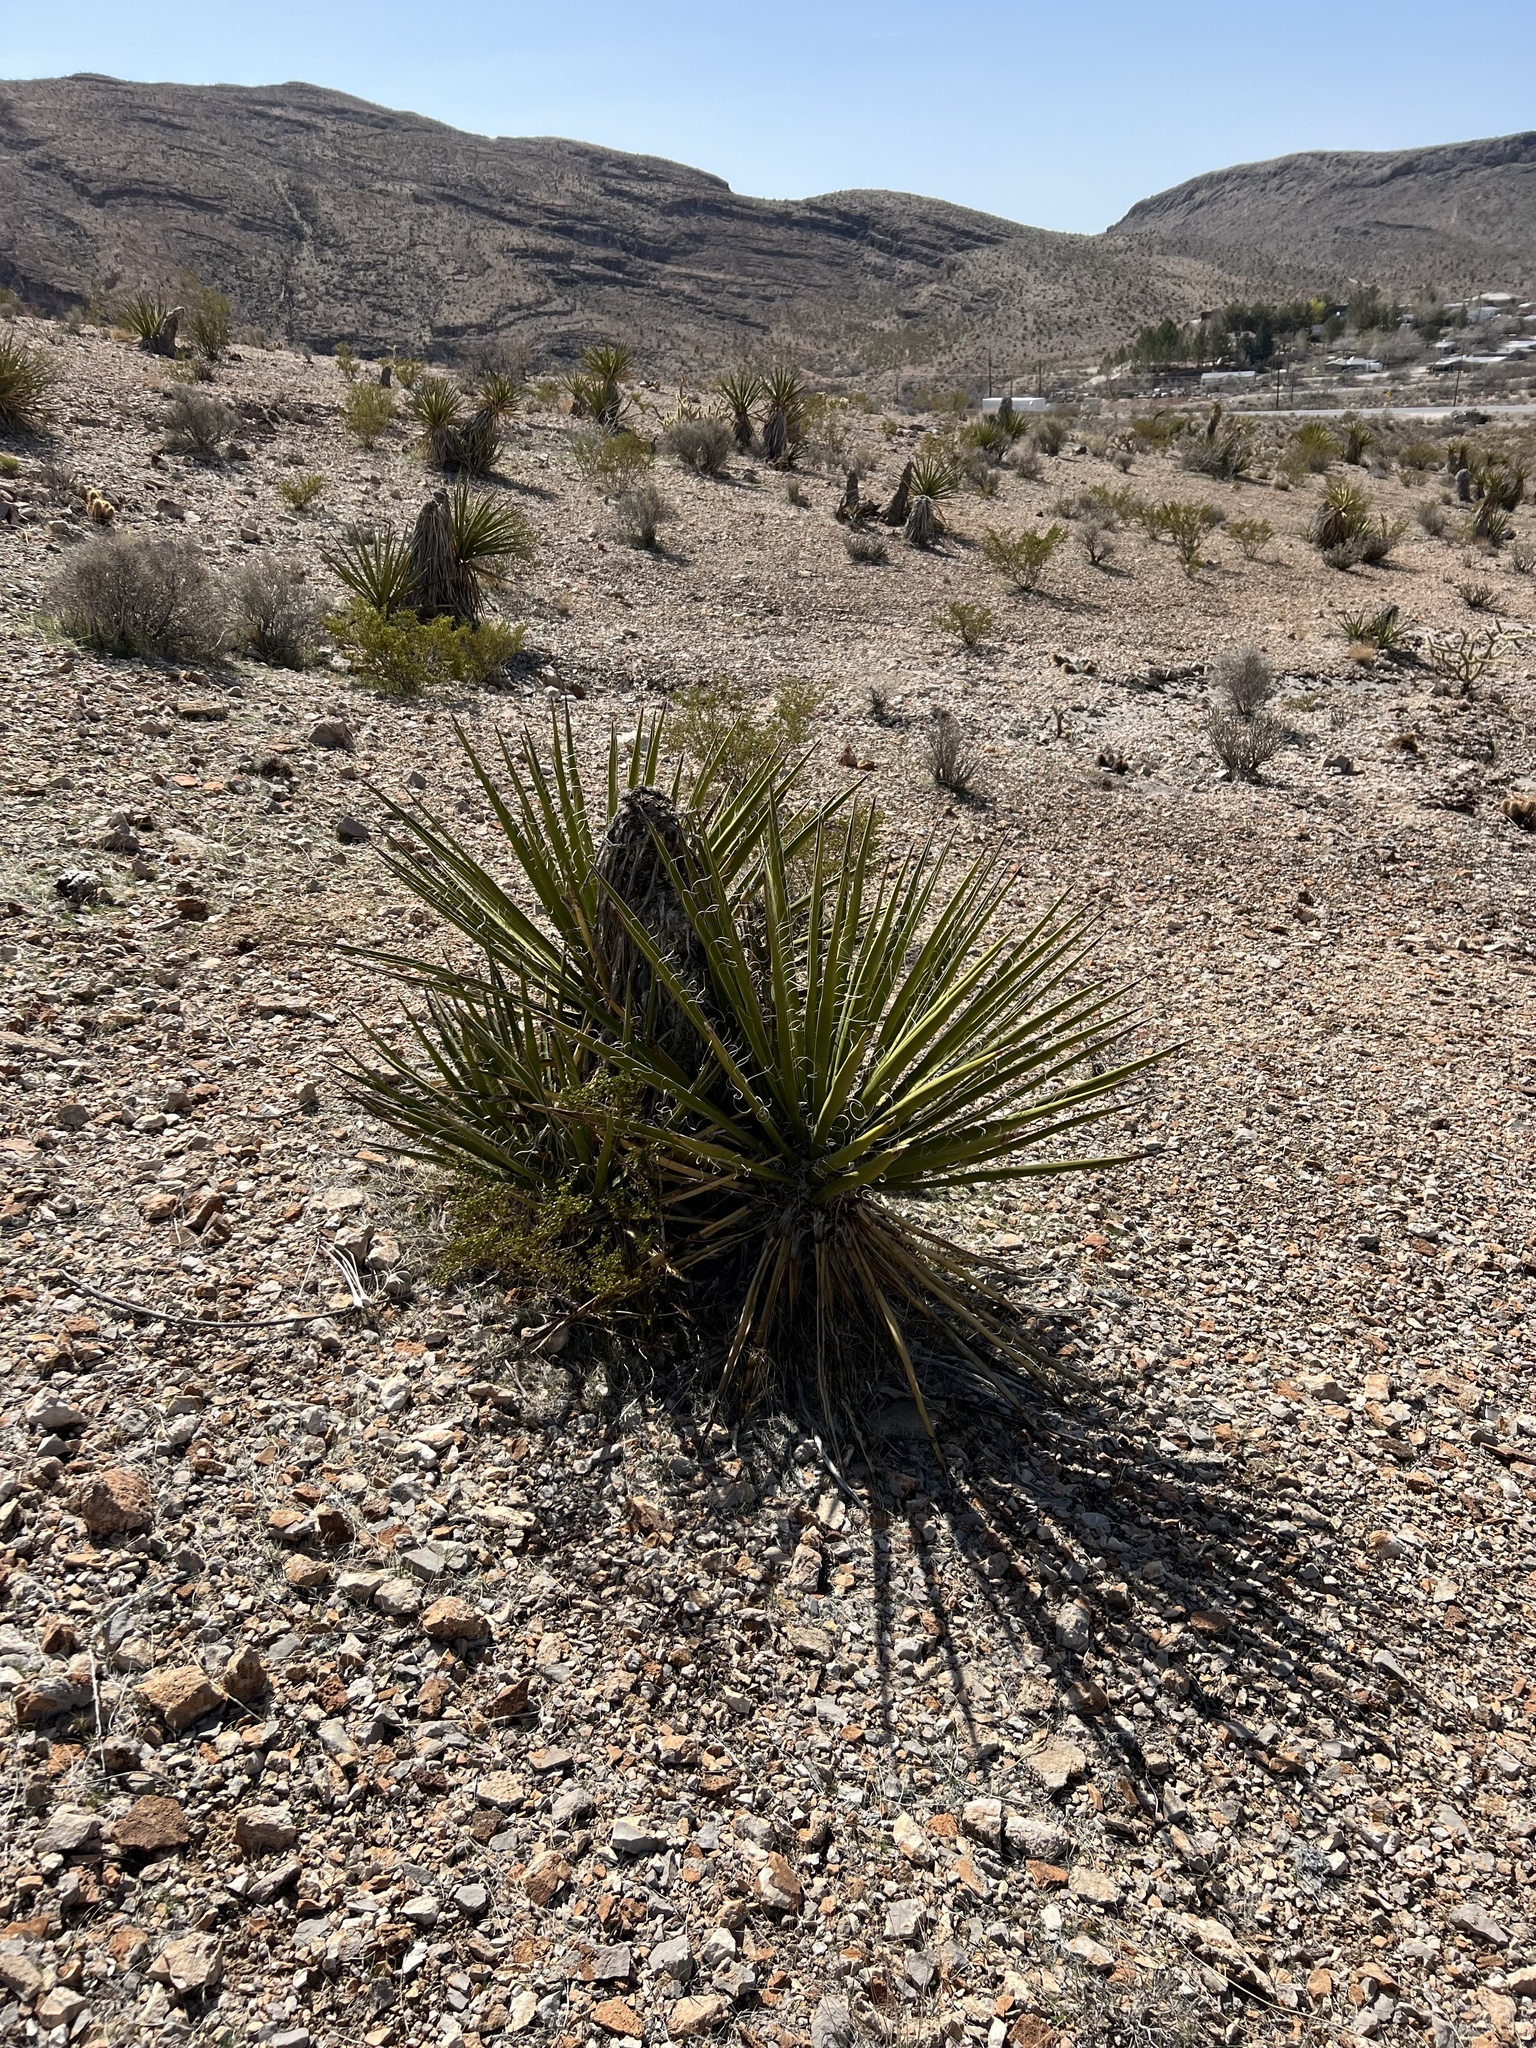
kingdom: Plantae
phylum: Tracheophyta
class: Liliopsida
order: Asparagales
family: Asparagaceae
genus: Yucca
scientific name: Yucca schidigera
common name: Mojave yucca
